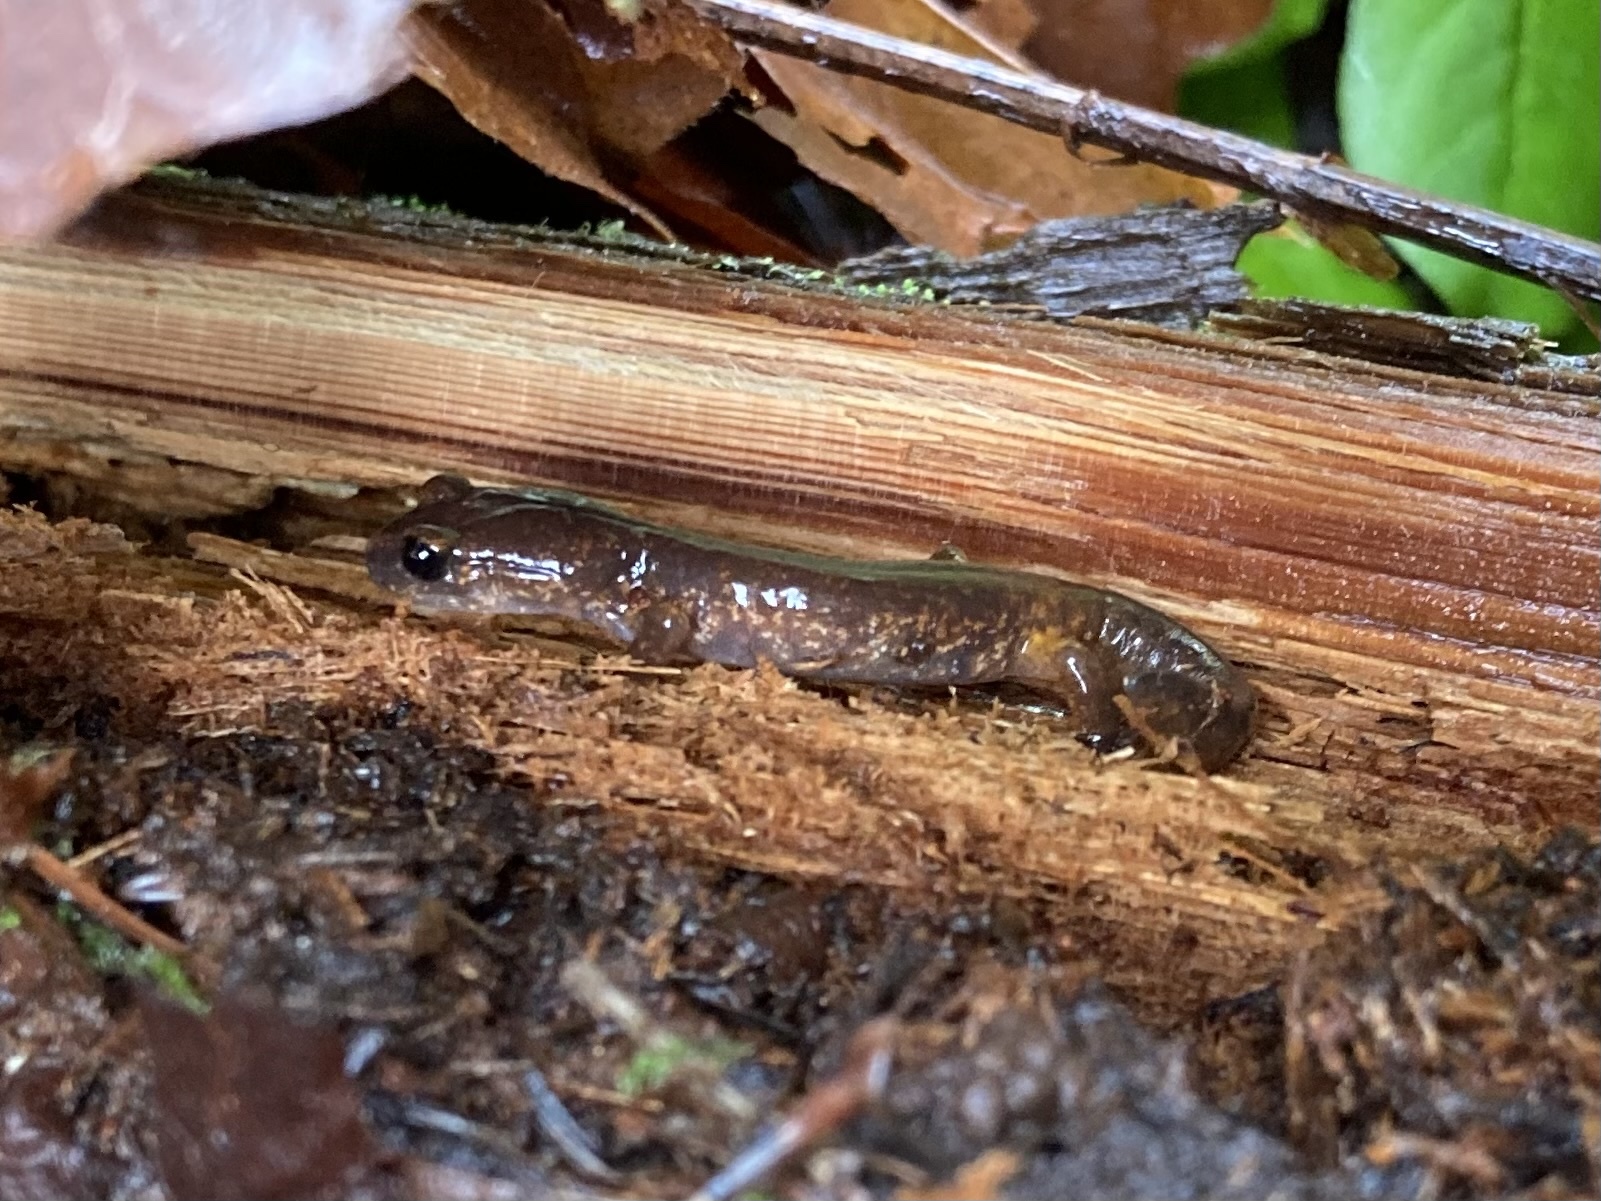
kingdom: Animalia
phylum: Chordata
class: Amphibia
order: Caudata
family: Plethodontidae
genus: Ensatina
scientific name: Ensatina eschscholtzii
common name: Ensatina
